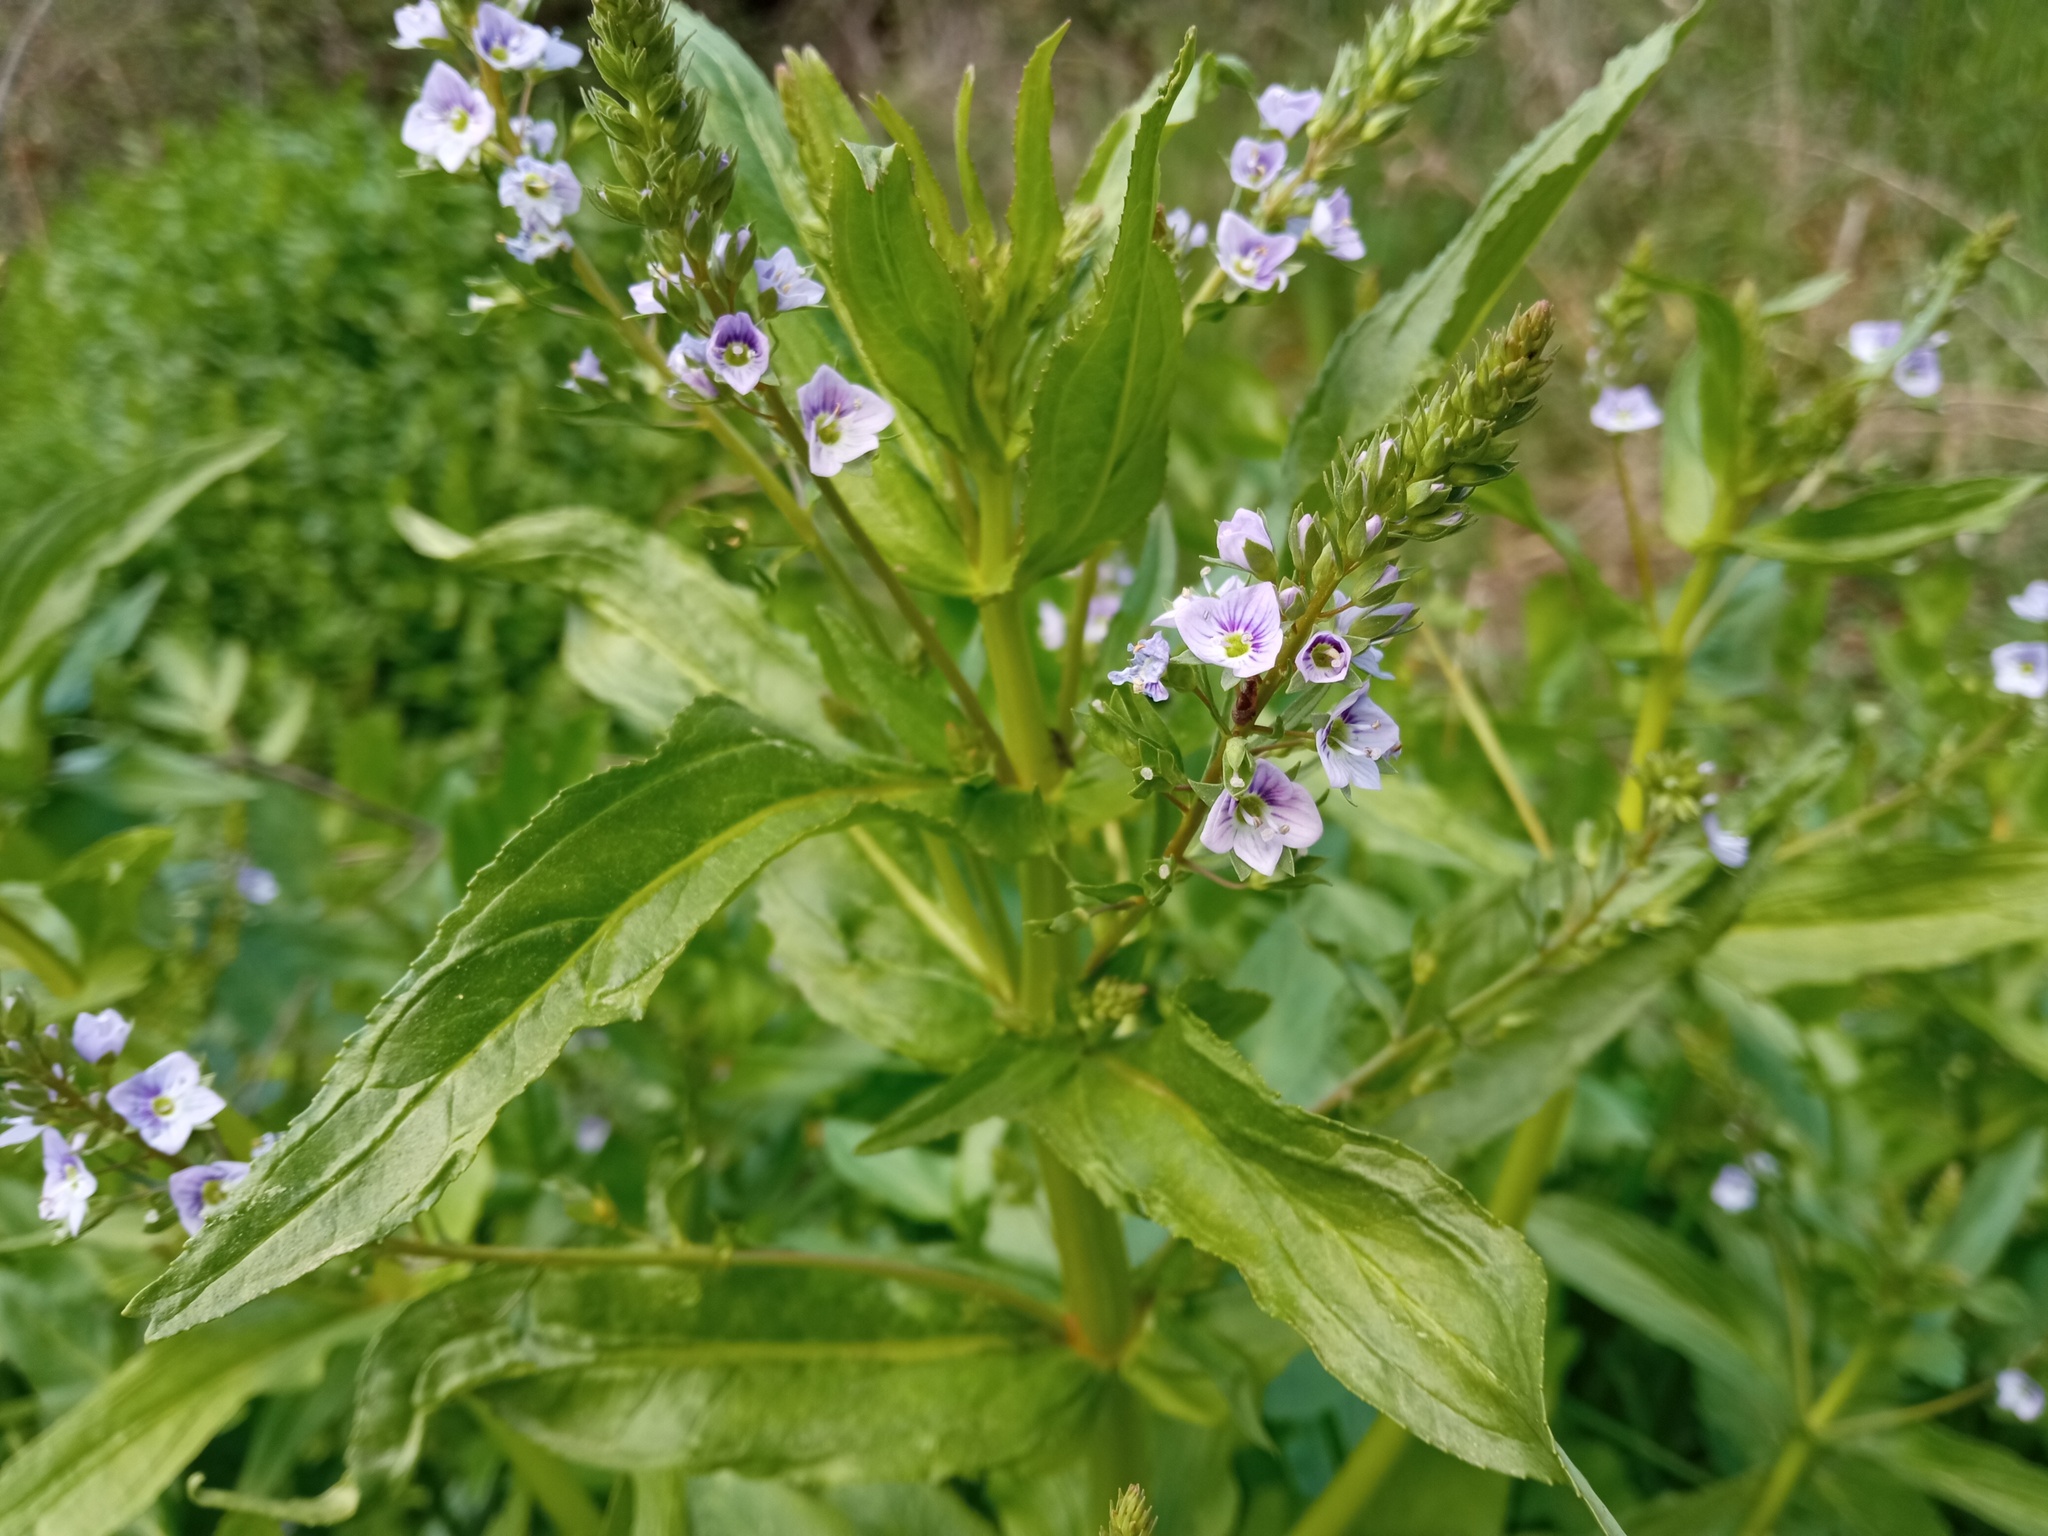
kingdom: Plantae
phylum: Tracheophyta
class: Magnoliopsida
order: Lamiales
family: Plantaginaceae
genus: Veronica
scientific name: Veronica anagallis-aquatica
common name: Water speedwell
